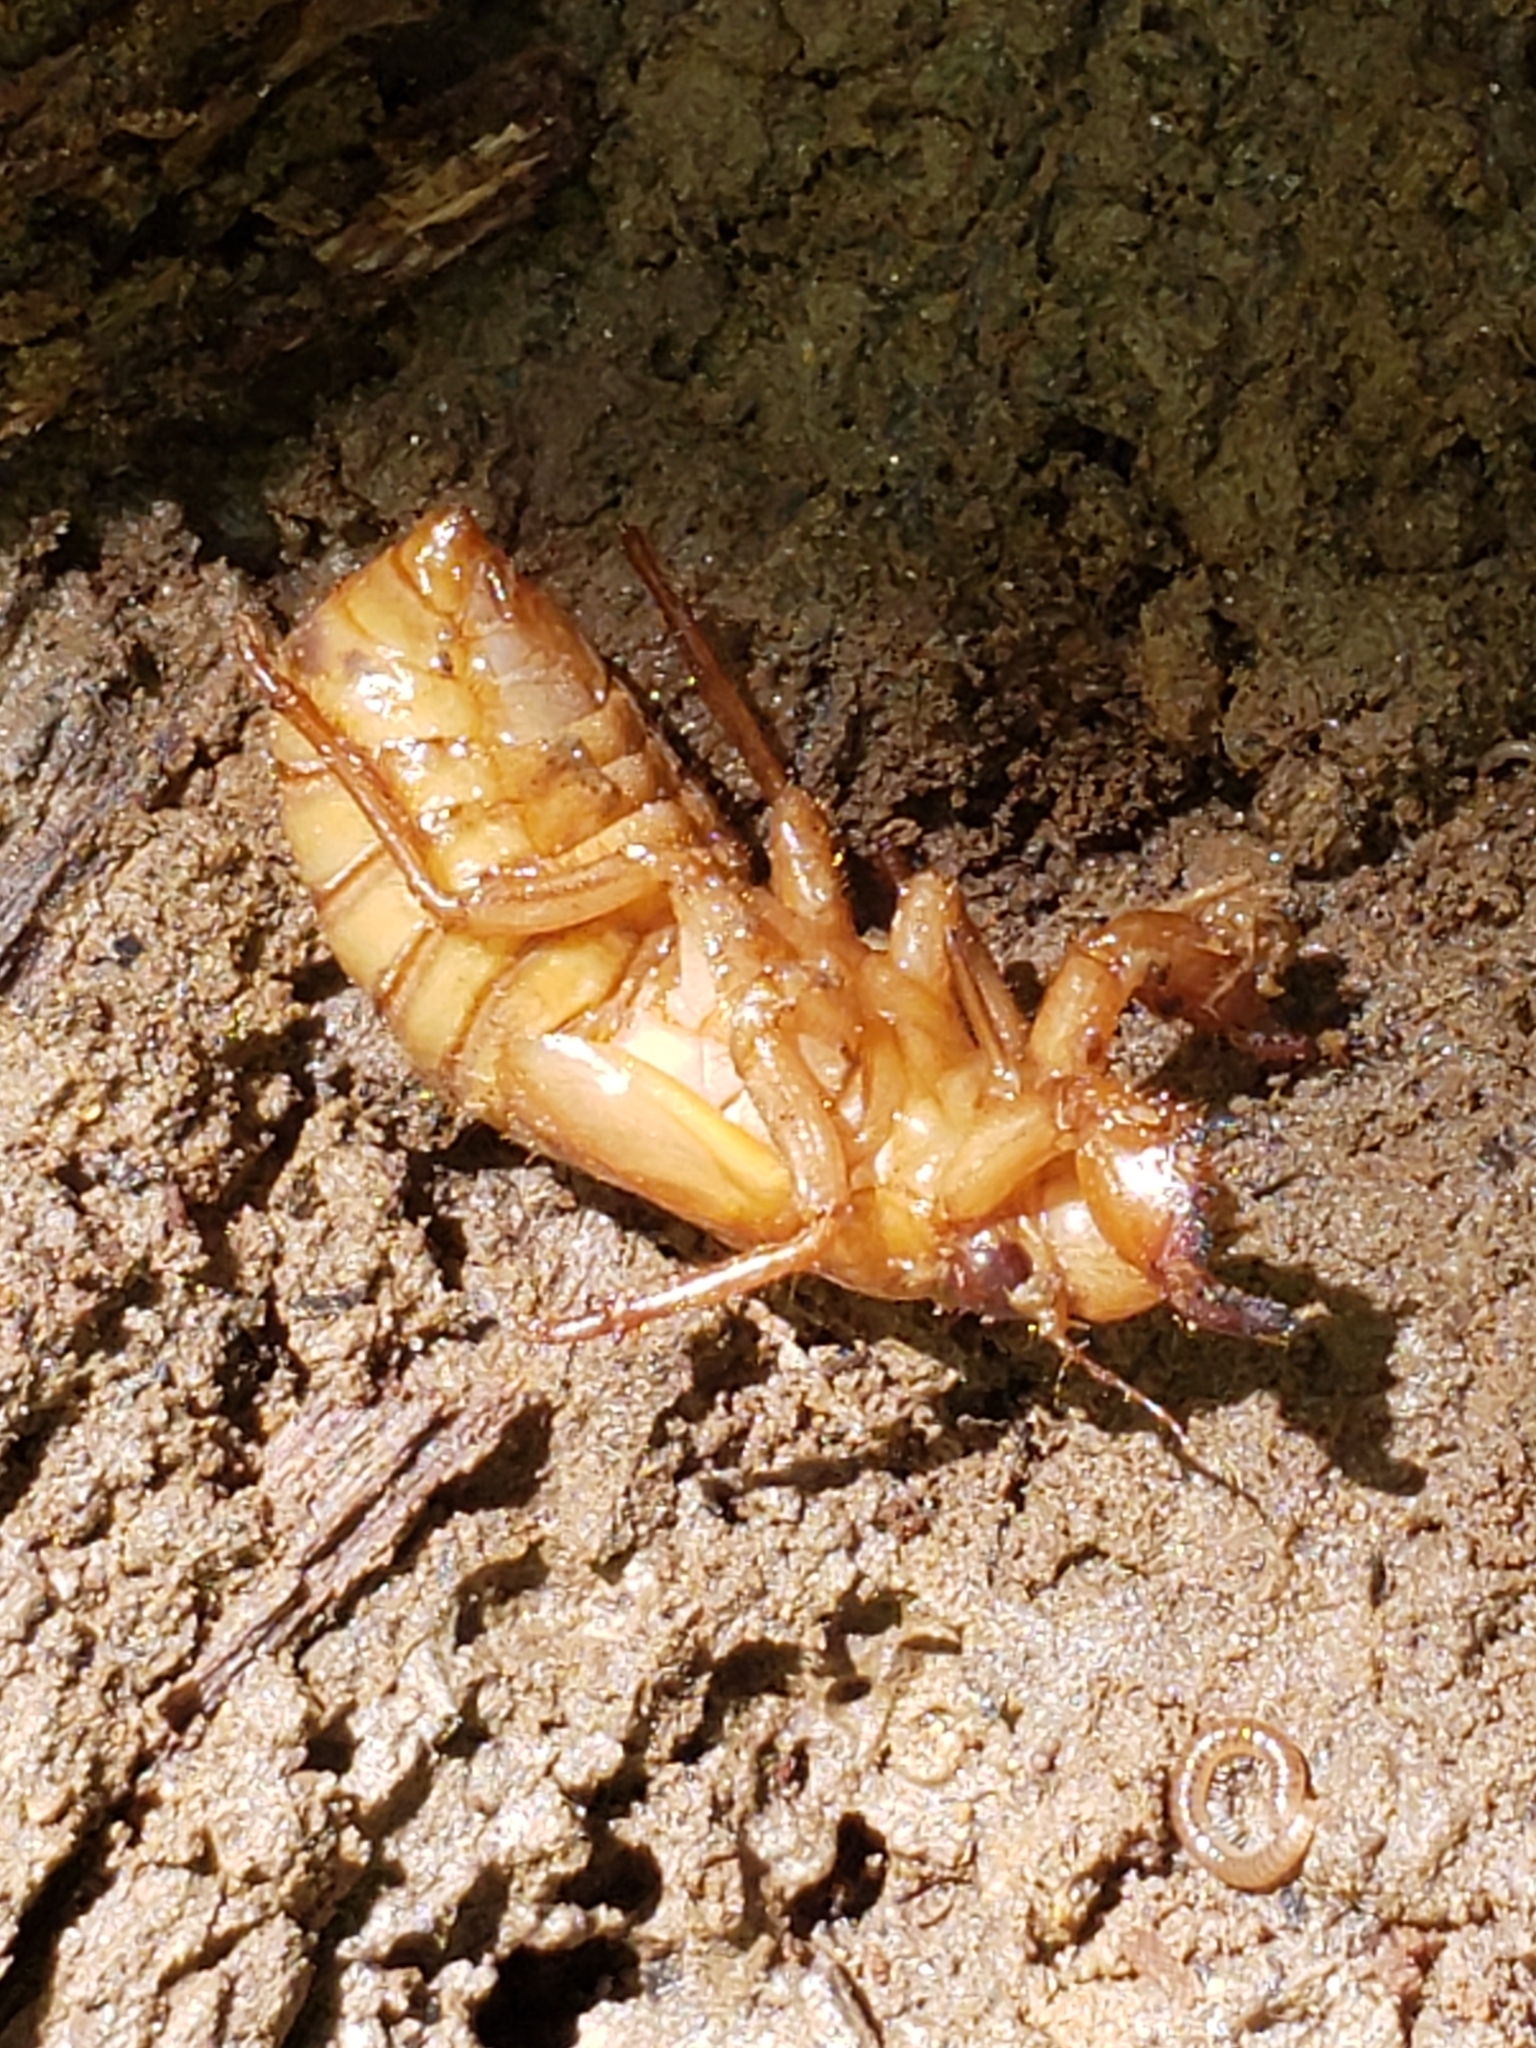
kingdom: Animalia
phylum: Arthropoda
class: Insecta
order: Hemiptera
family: Cicadidae
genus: Magicicada
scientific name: Magicicada
